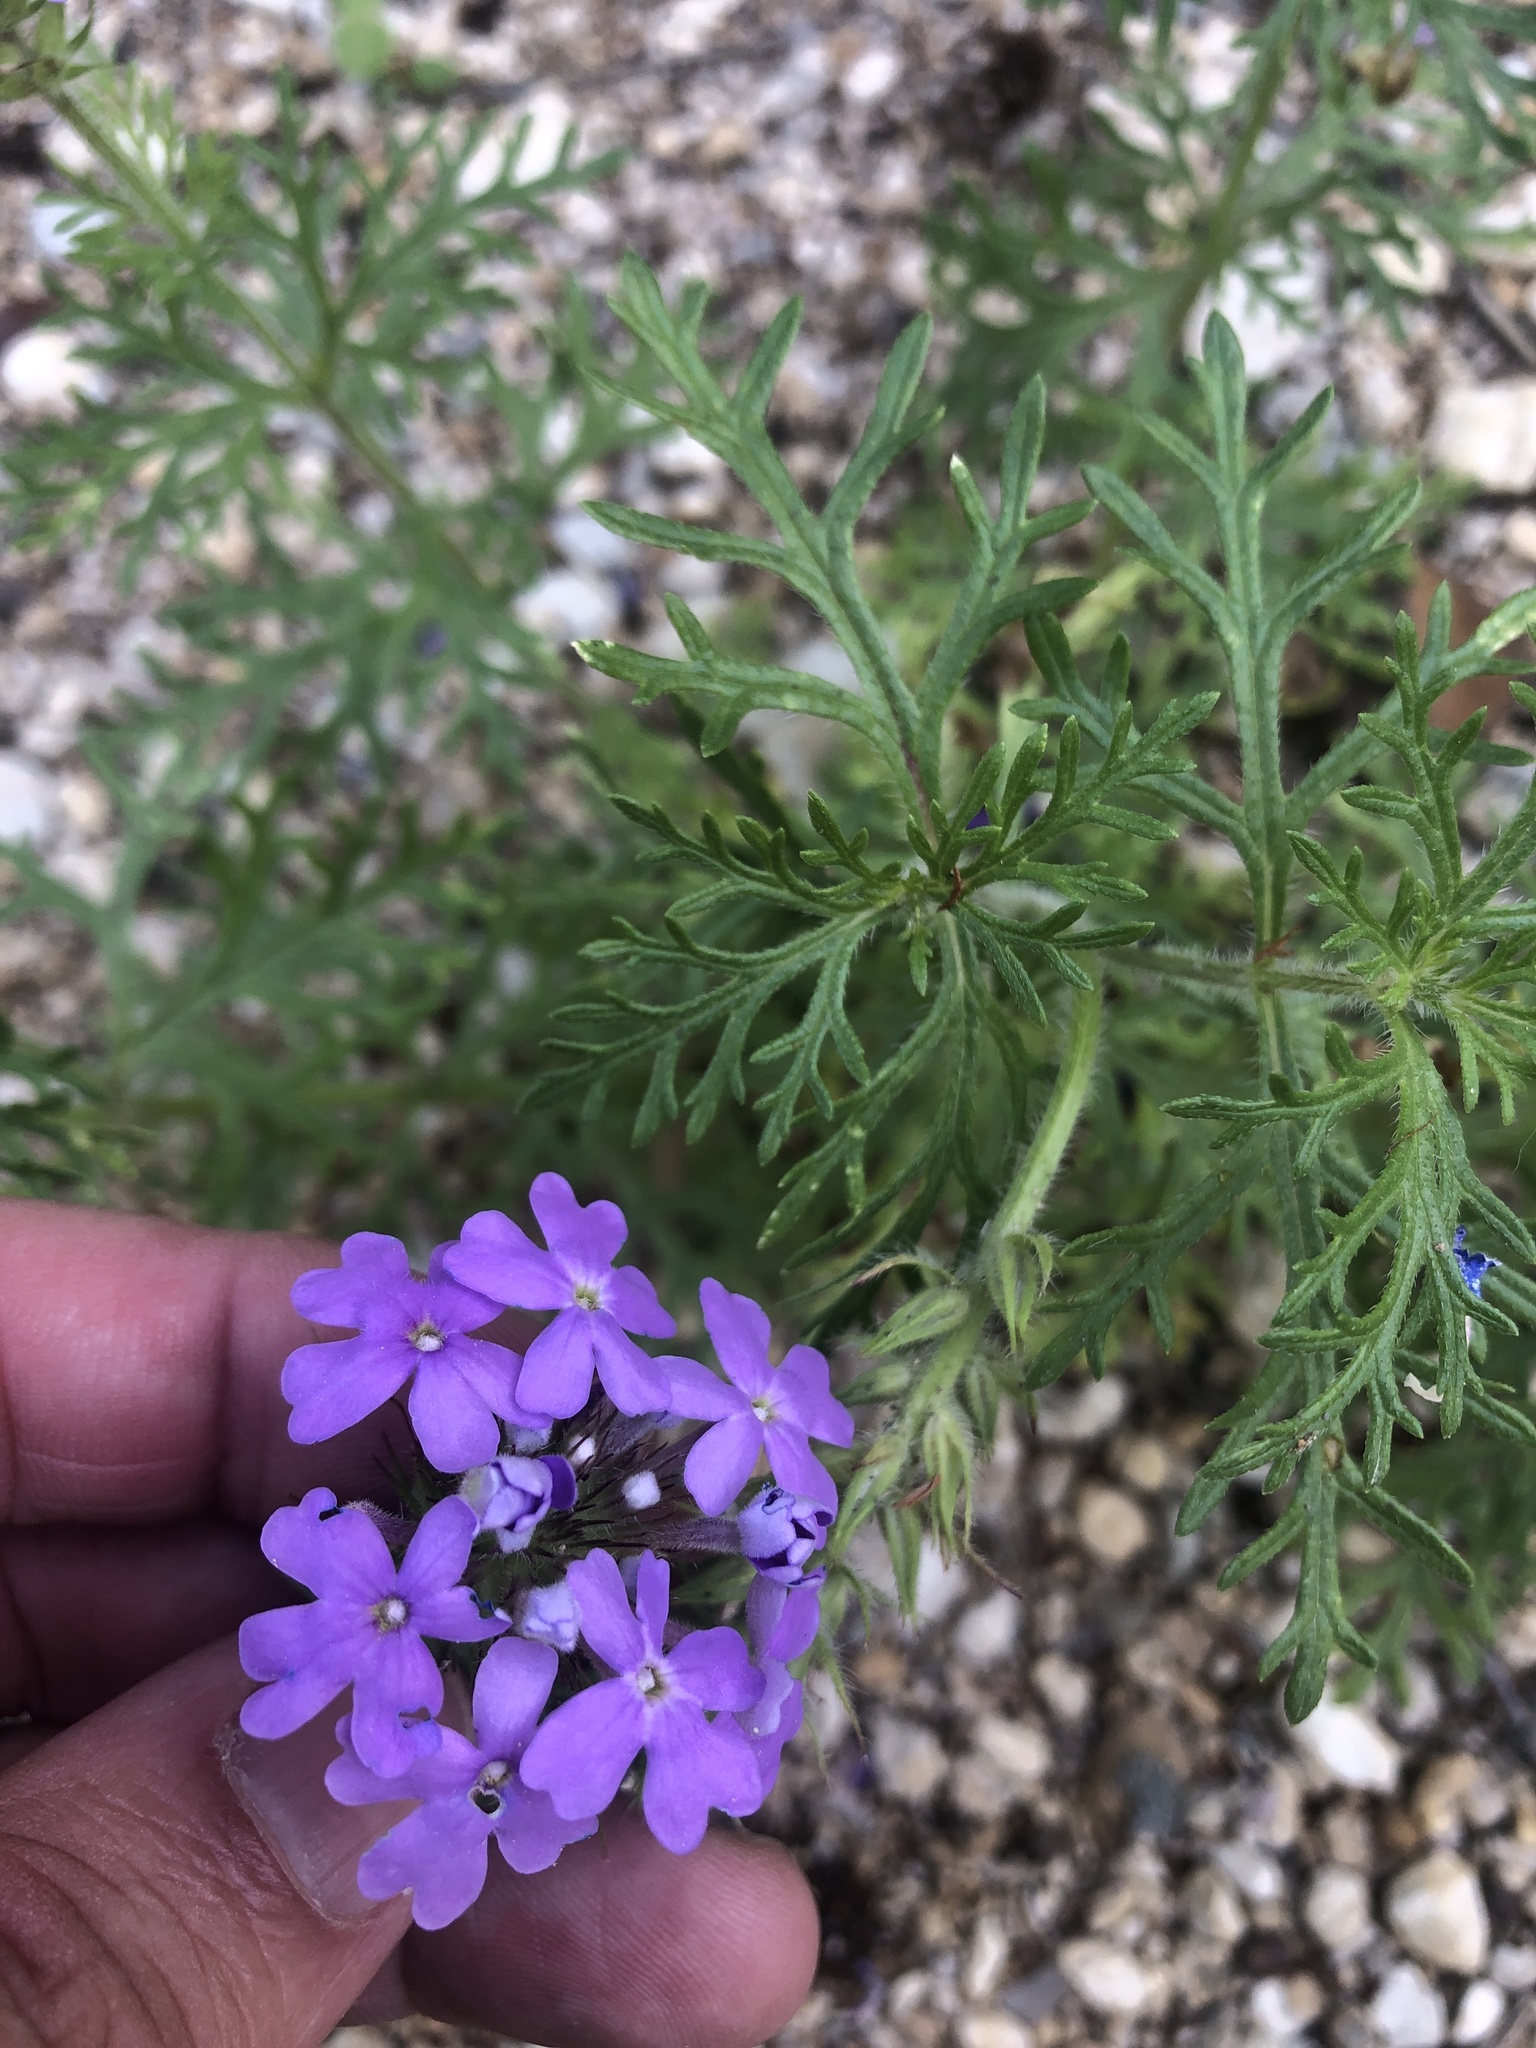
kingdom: Plantae
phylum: Tracheophyta
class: Magnoliopsida
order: Lamiales
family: Verbenaceae
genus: Verbena
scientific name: Verbena bipinnatifida
